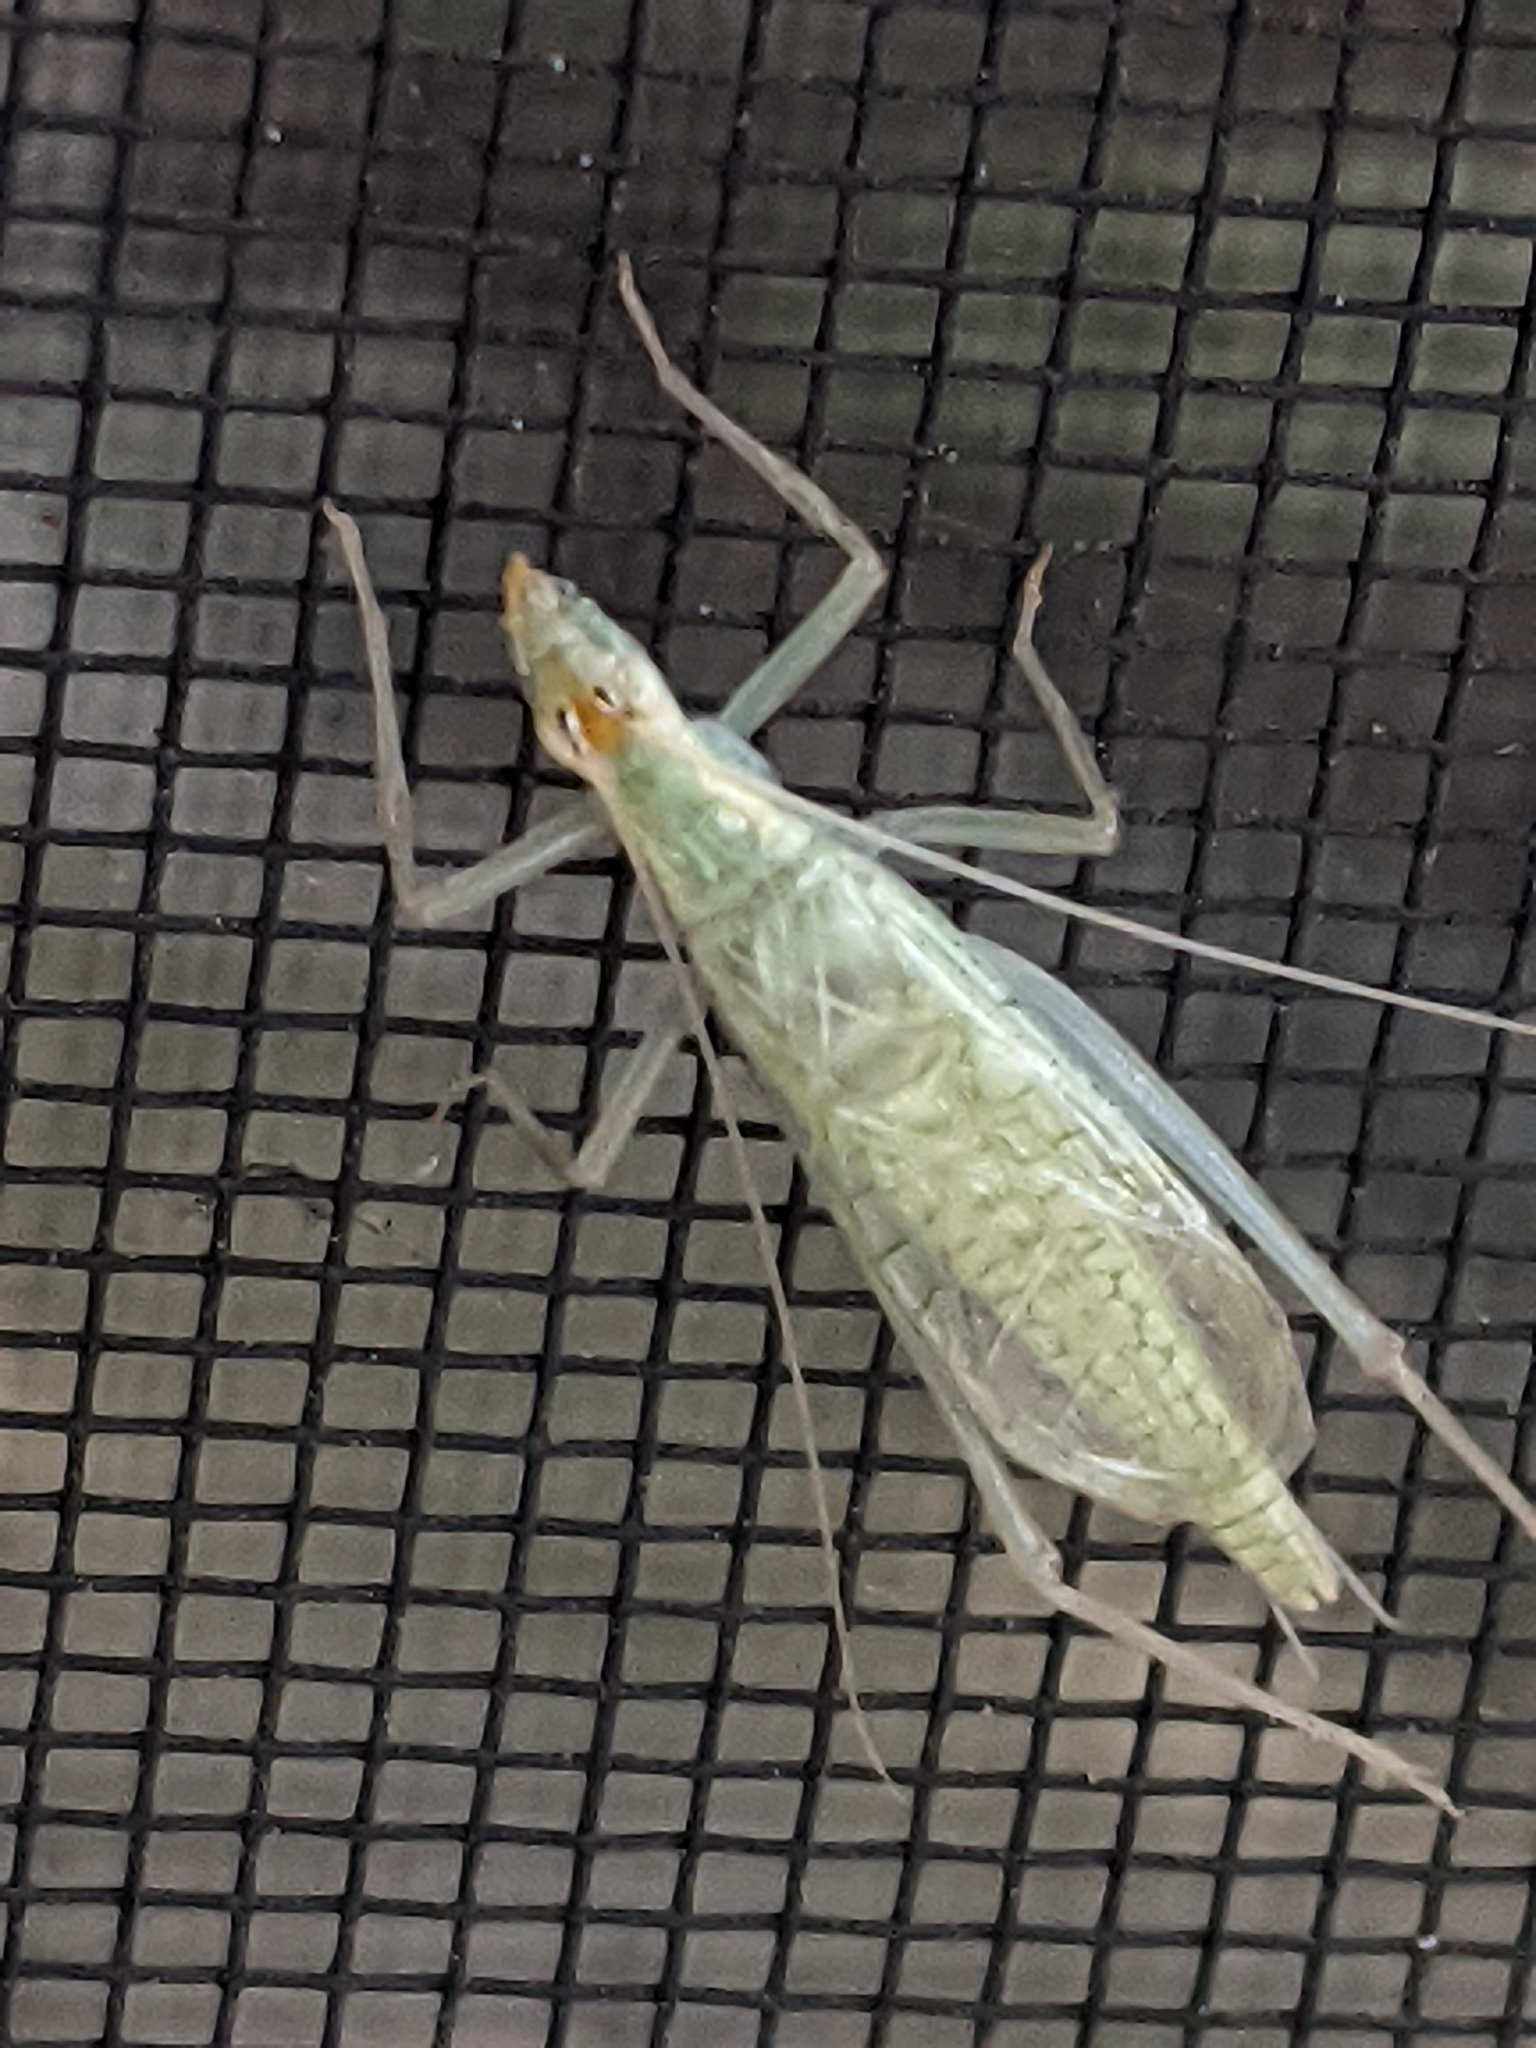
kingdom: Animalia
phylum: Arthropoda
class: Insecta
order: Orthoptera
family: Gryllidae
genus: Oecanthus
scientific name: Oecanthus niveus
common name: Narrow-winged tree cricket
